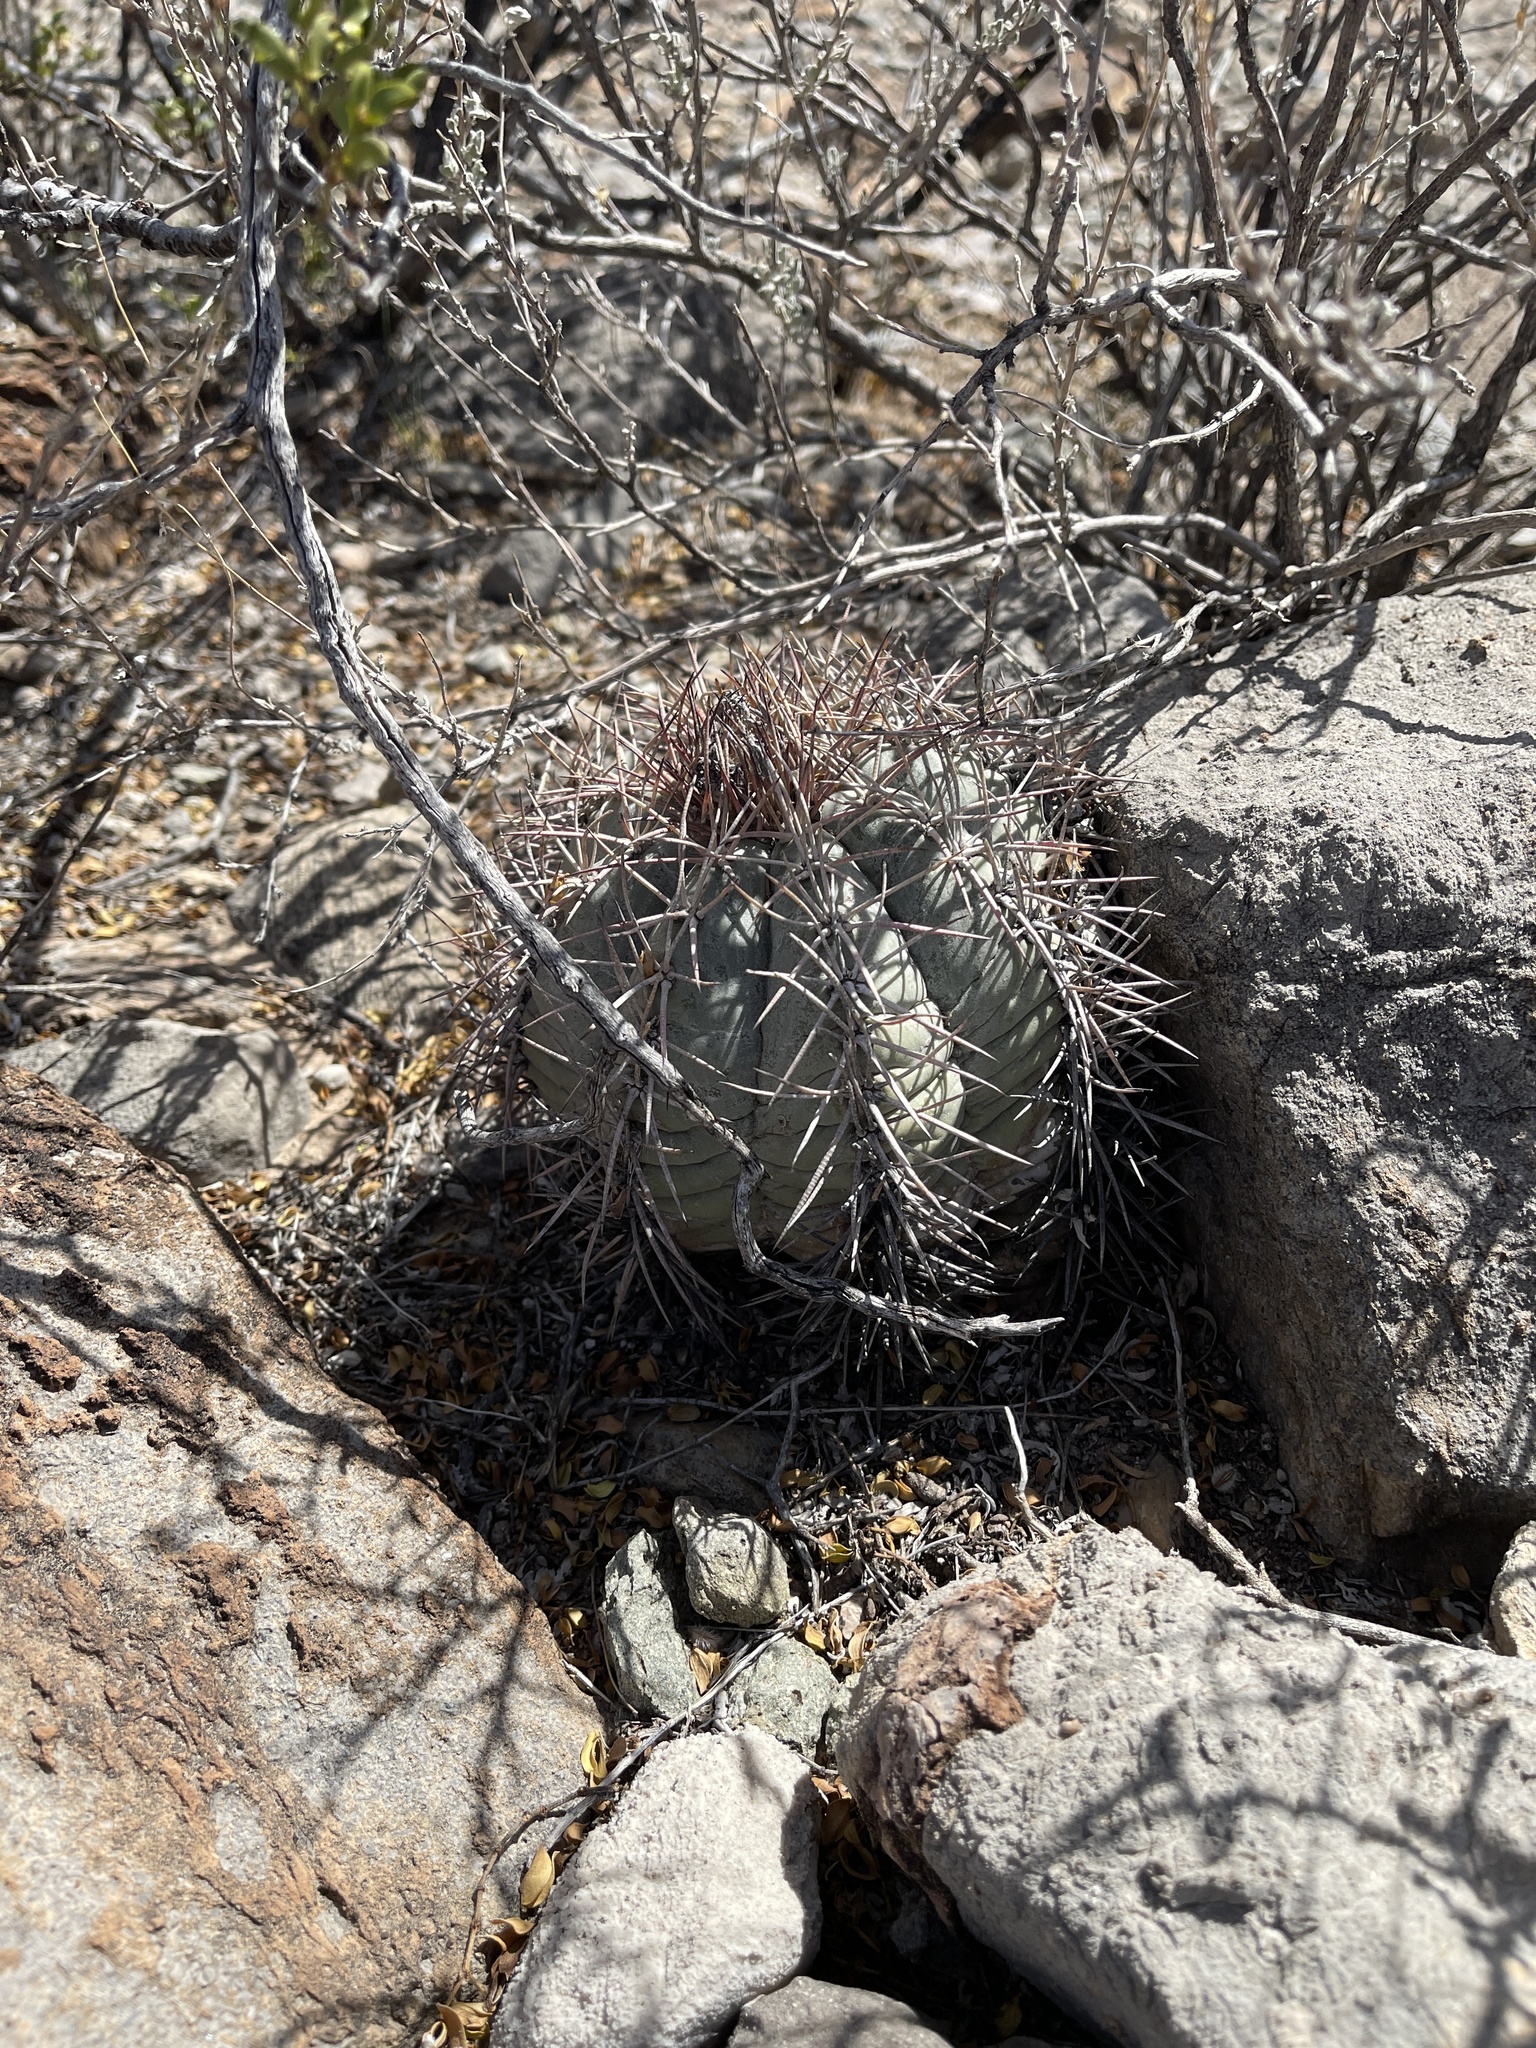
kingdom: Plantae
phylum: Tracheophyta
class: Magnoliopsida
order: Caryophyllales
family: Cactaceae
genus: Echinocactus
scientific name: Echinocactus horizonthalonius
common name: Devilshead
